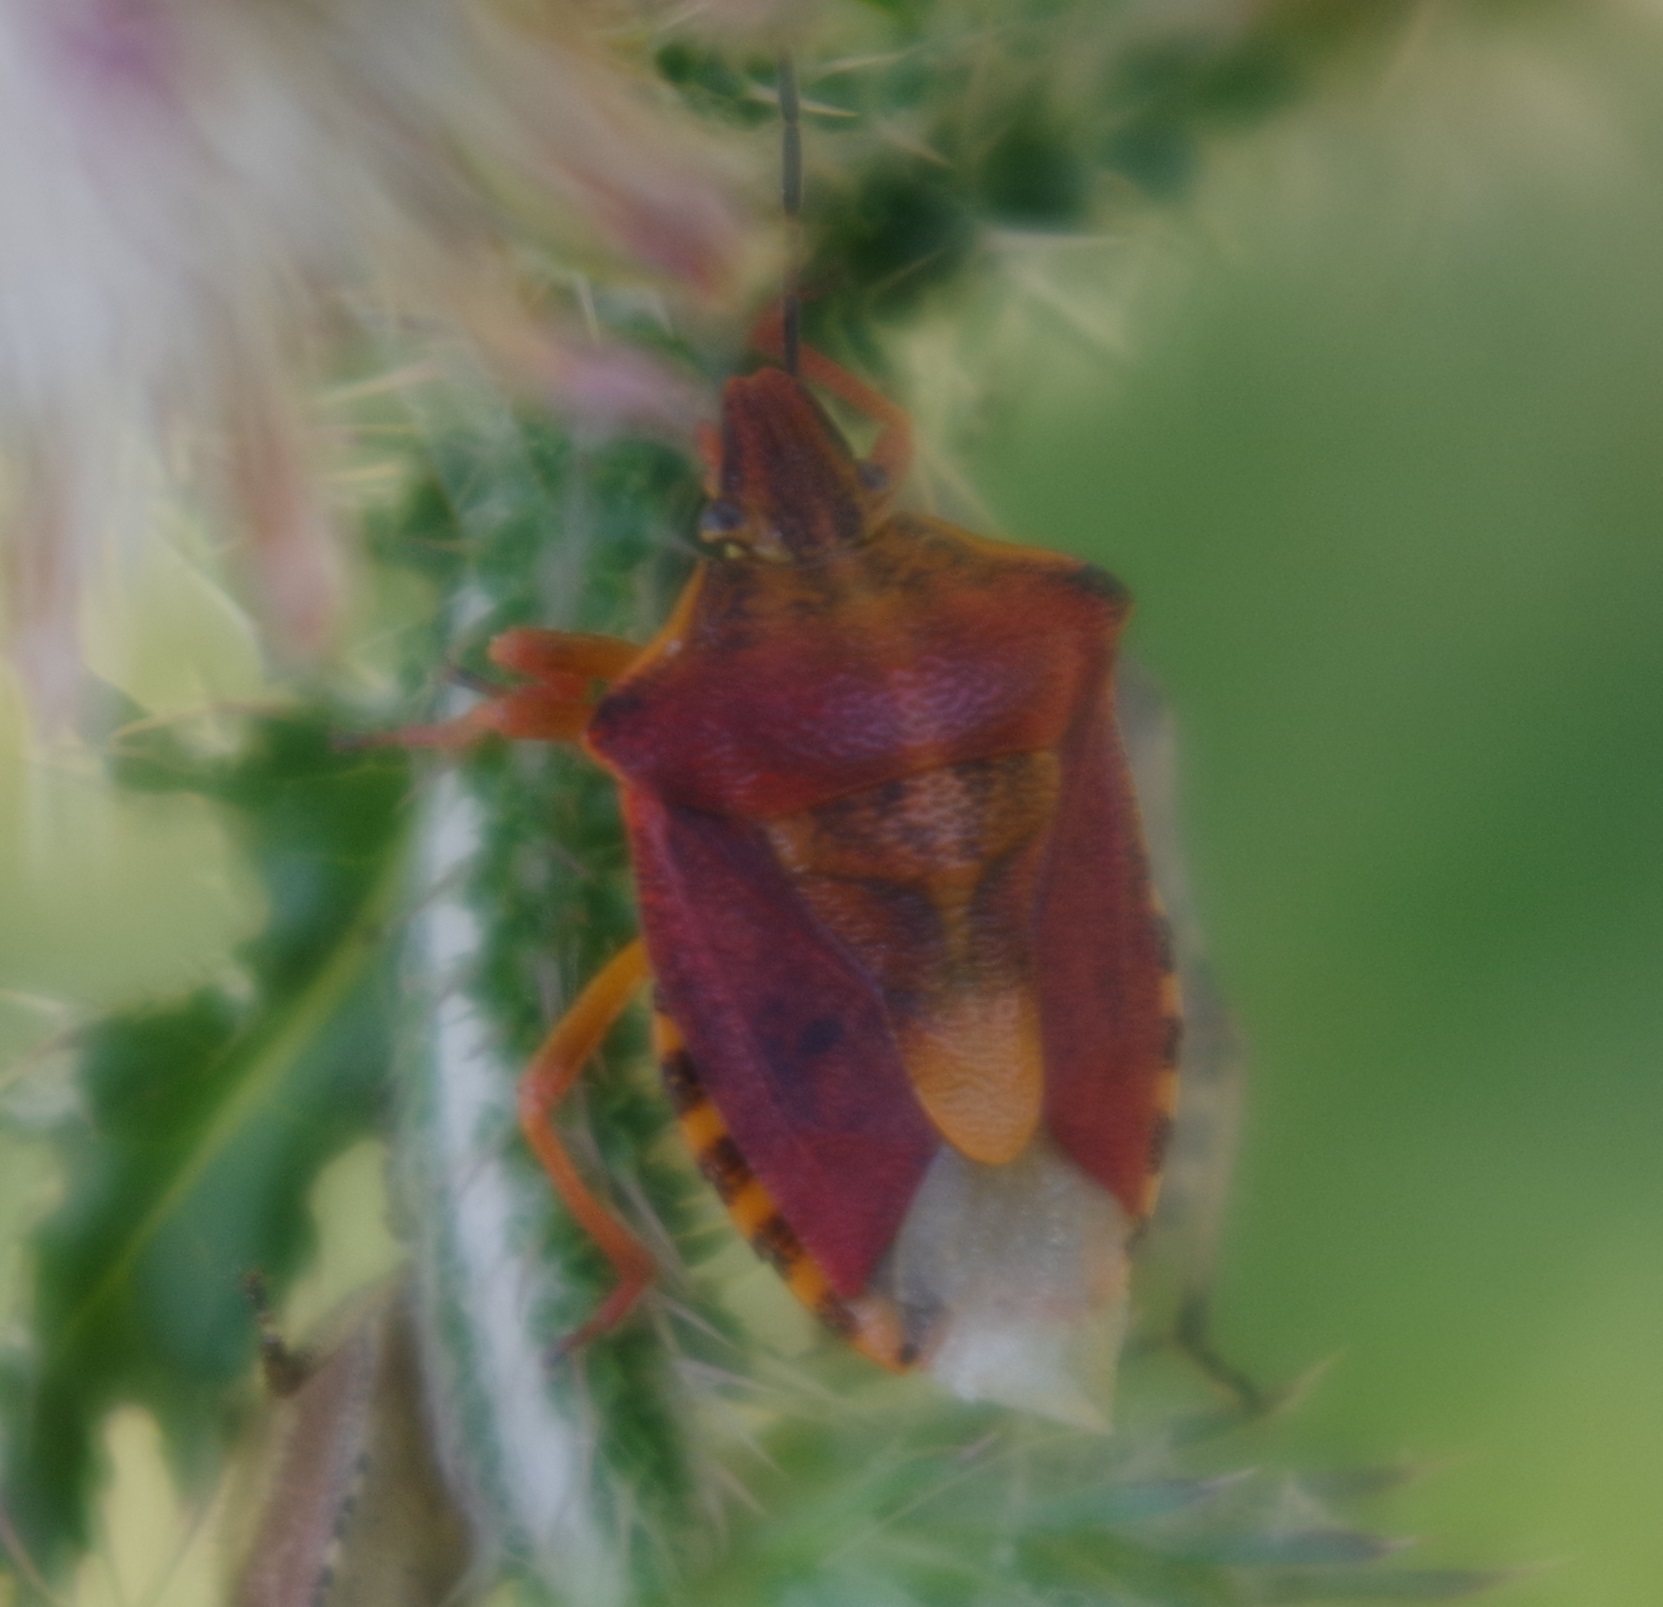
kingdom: Animalia
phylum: Arthropoda
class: Insecta
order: Hemiptera
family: Pentatomidae
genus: Carpocoris
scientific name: Carpocoris purpureipennis
